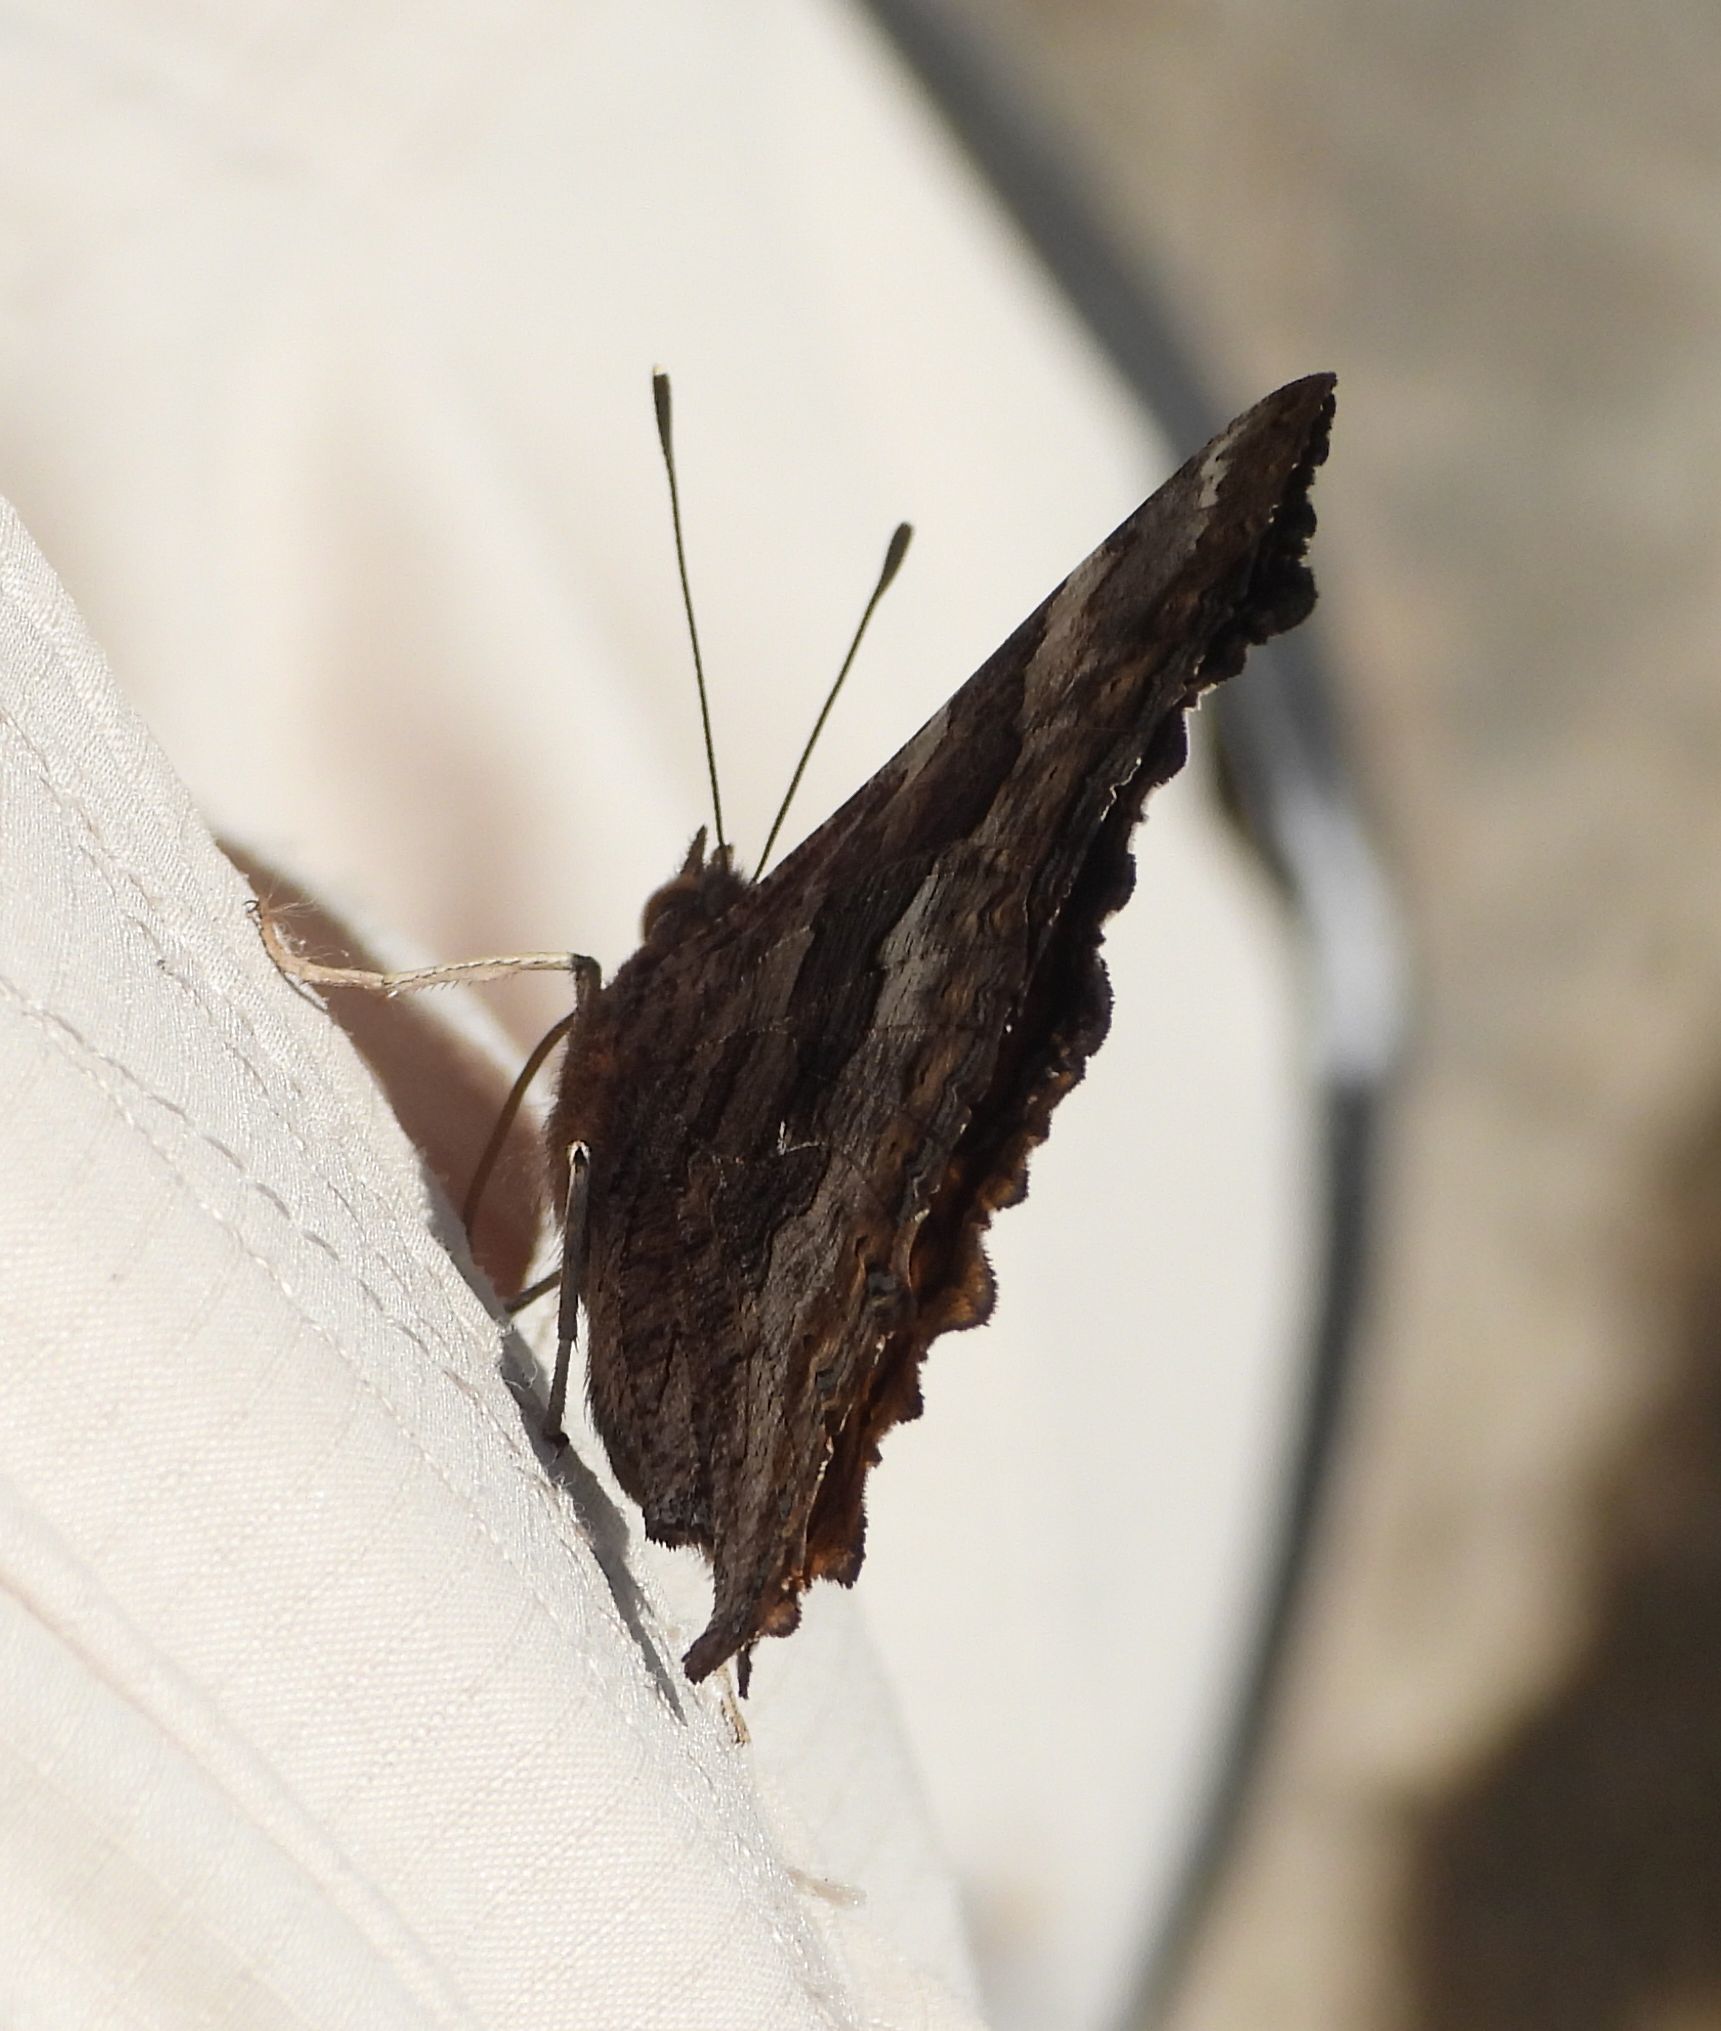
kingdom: Animalia
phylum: Arthropoda
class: Insecta
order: Lepidoptera
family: Nymphalidae
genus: Polygonia
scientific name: Polygonia vaualbum
